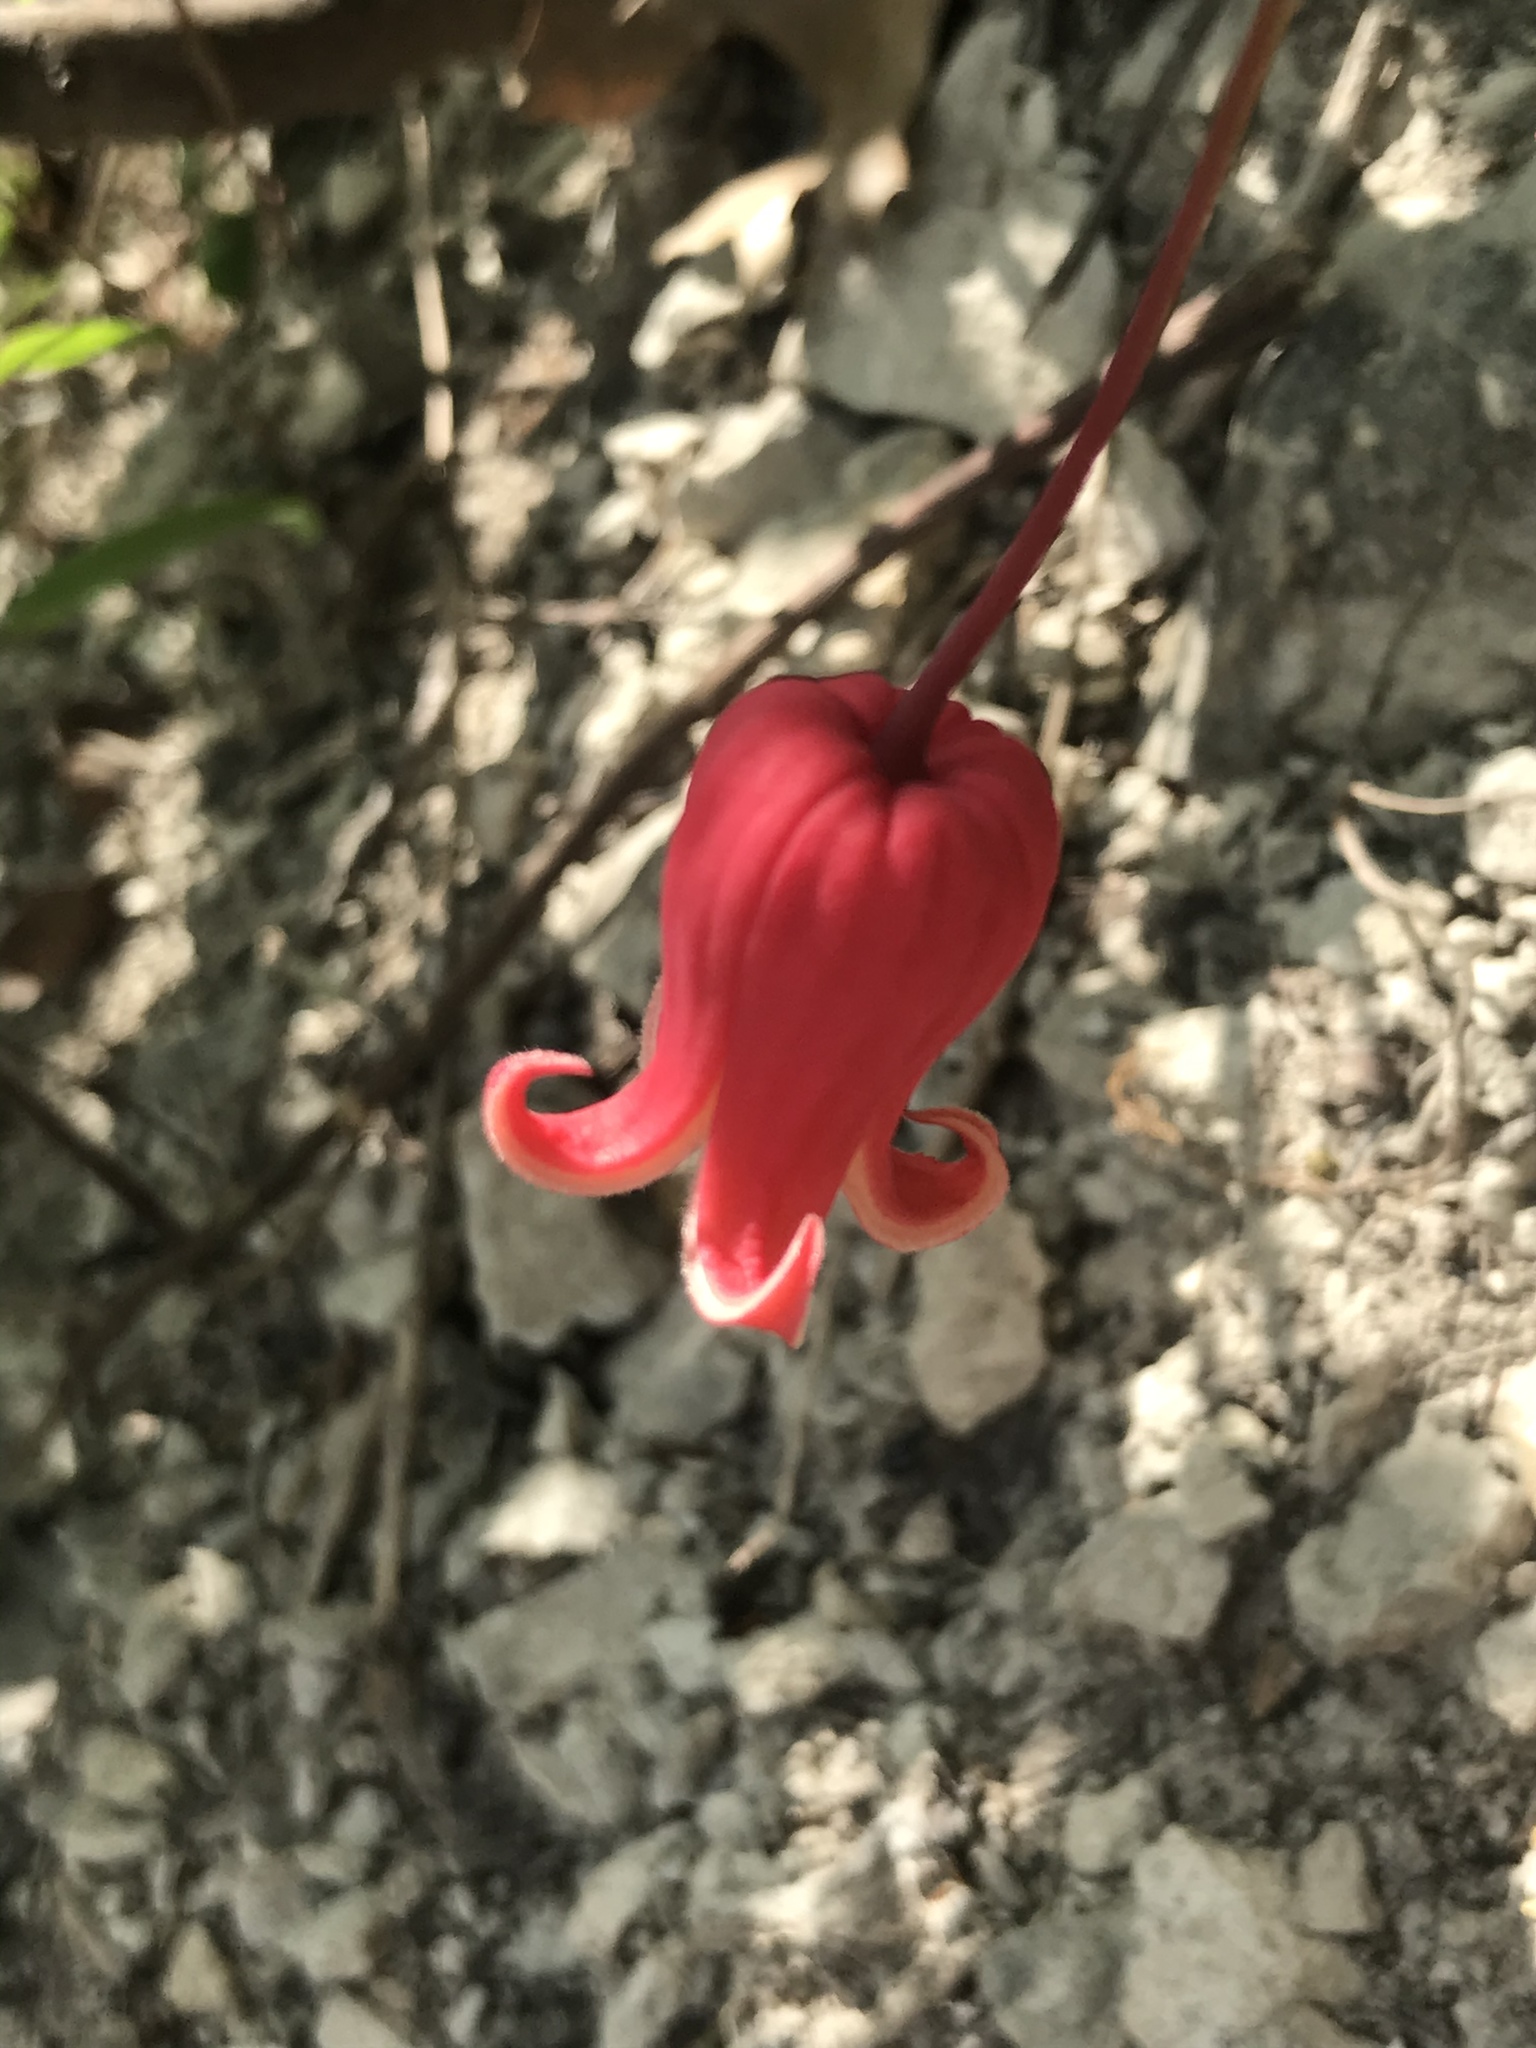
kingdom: Plantae
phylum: Tracheophyta
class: Magnoliopsida
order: Ranunculales
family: Ranunculaceae
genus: Clematis
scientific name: Clematis texensis
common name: Crimson clematis
